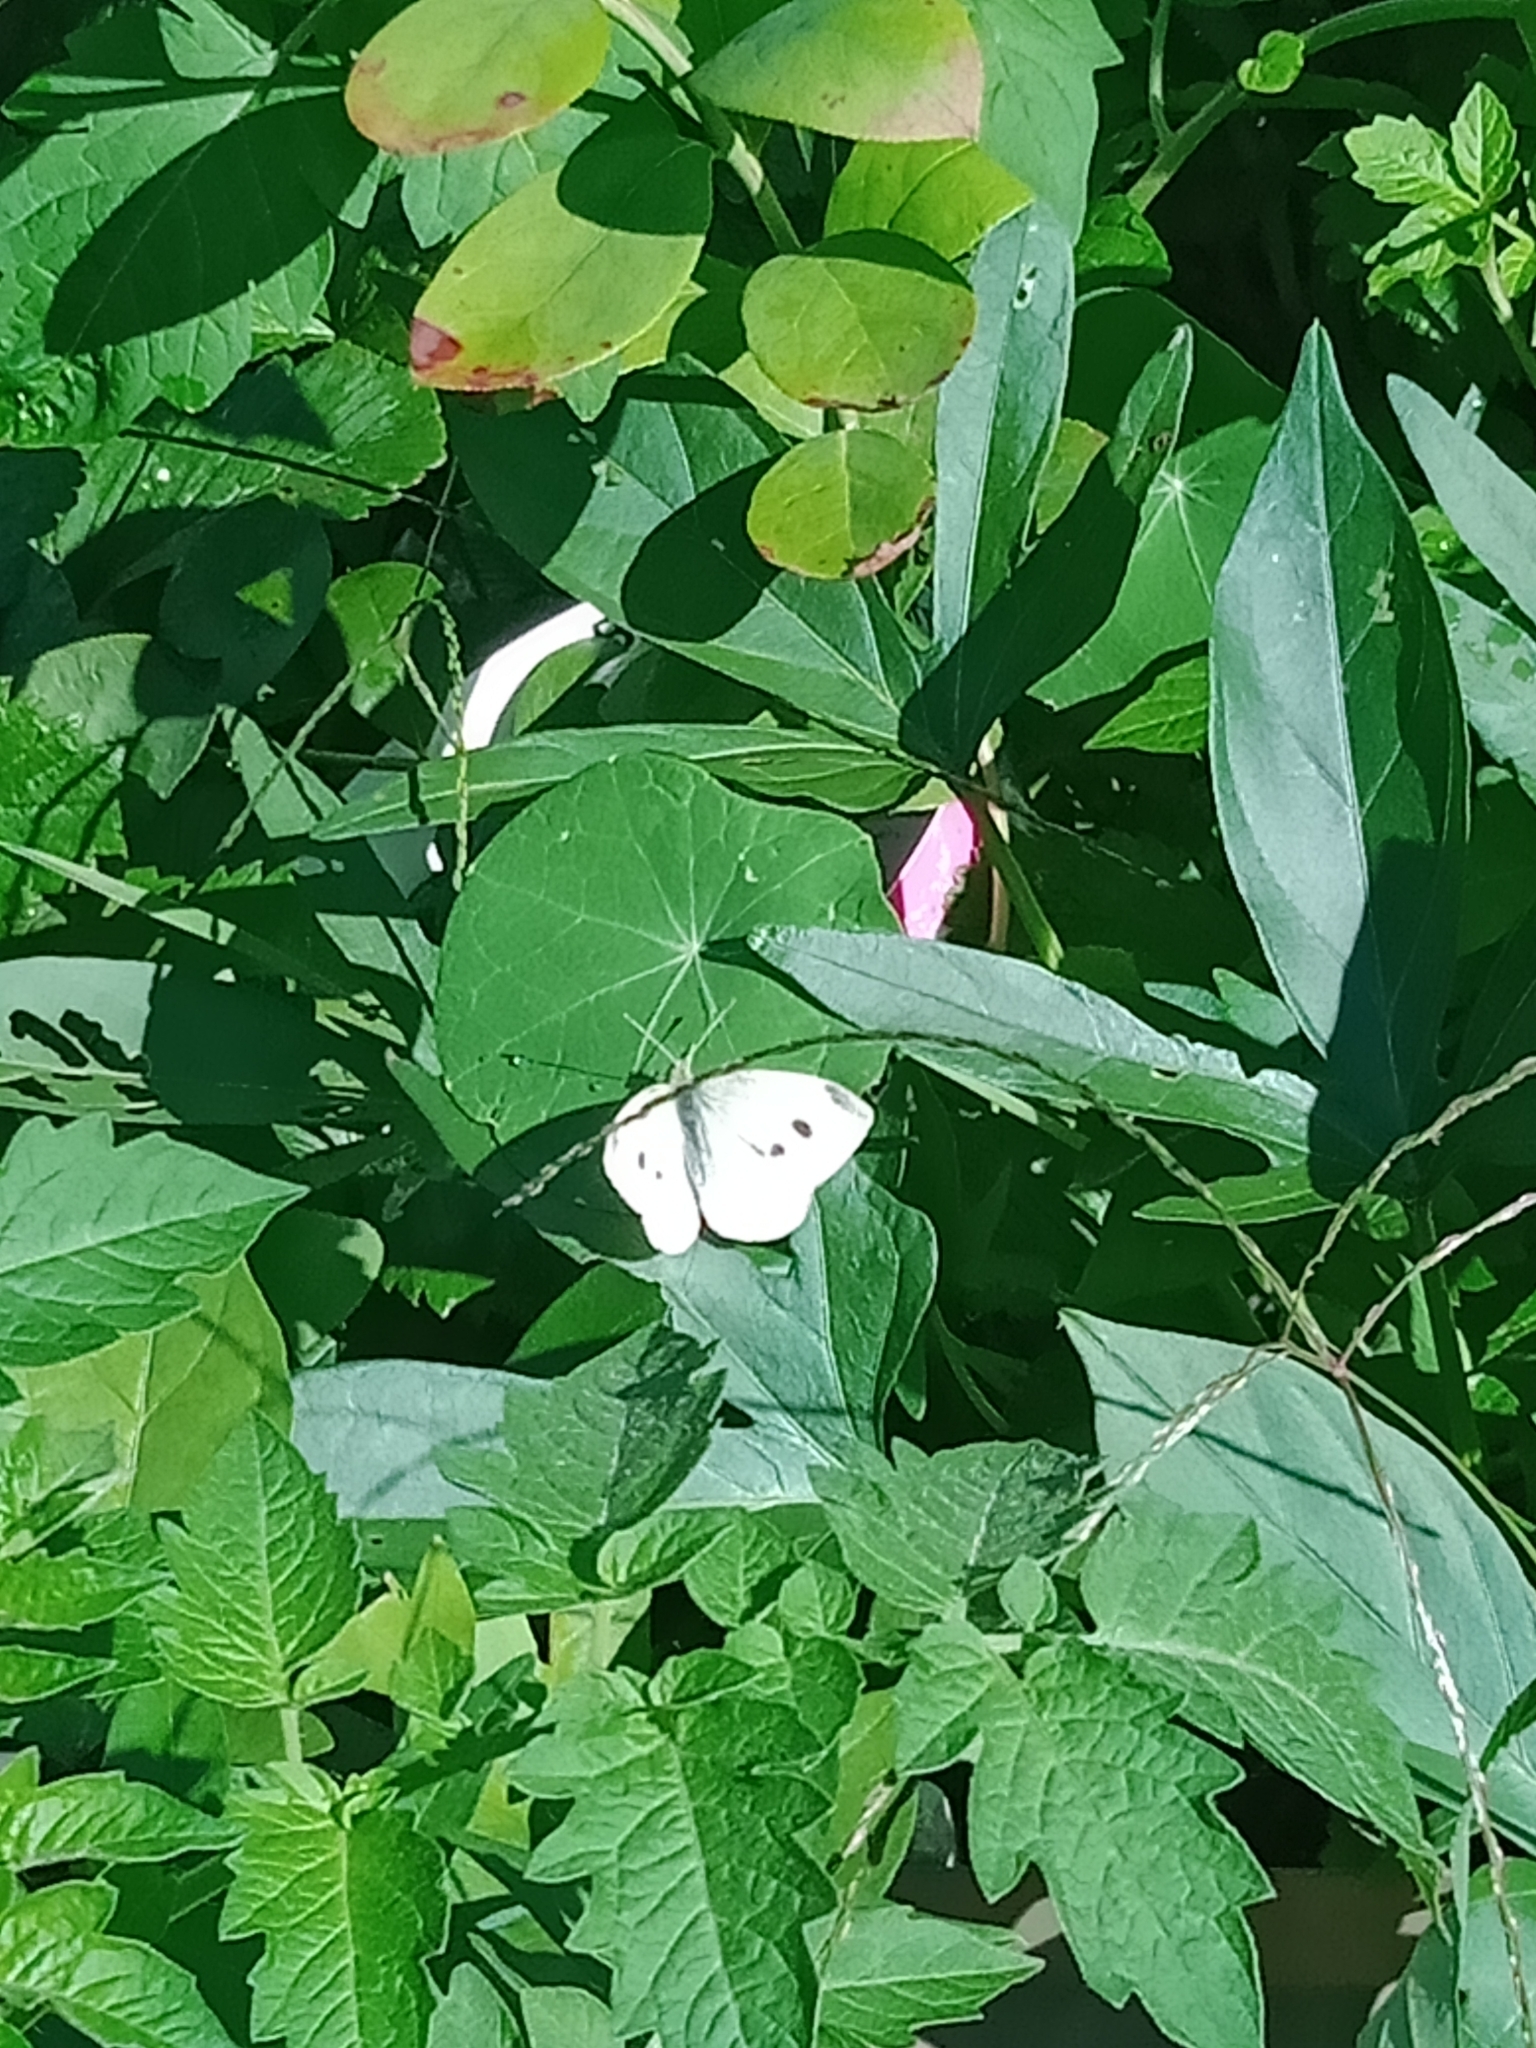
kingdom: Animalia
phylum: Arthropoda
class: Insecta
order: Lepidoptera
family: Pieridae
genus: Pieris
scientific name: Pieris rapae
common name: Small white
